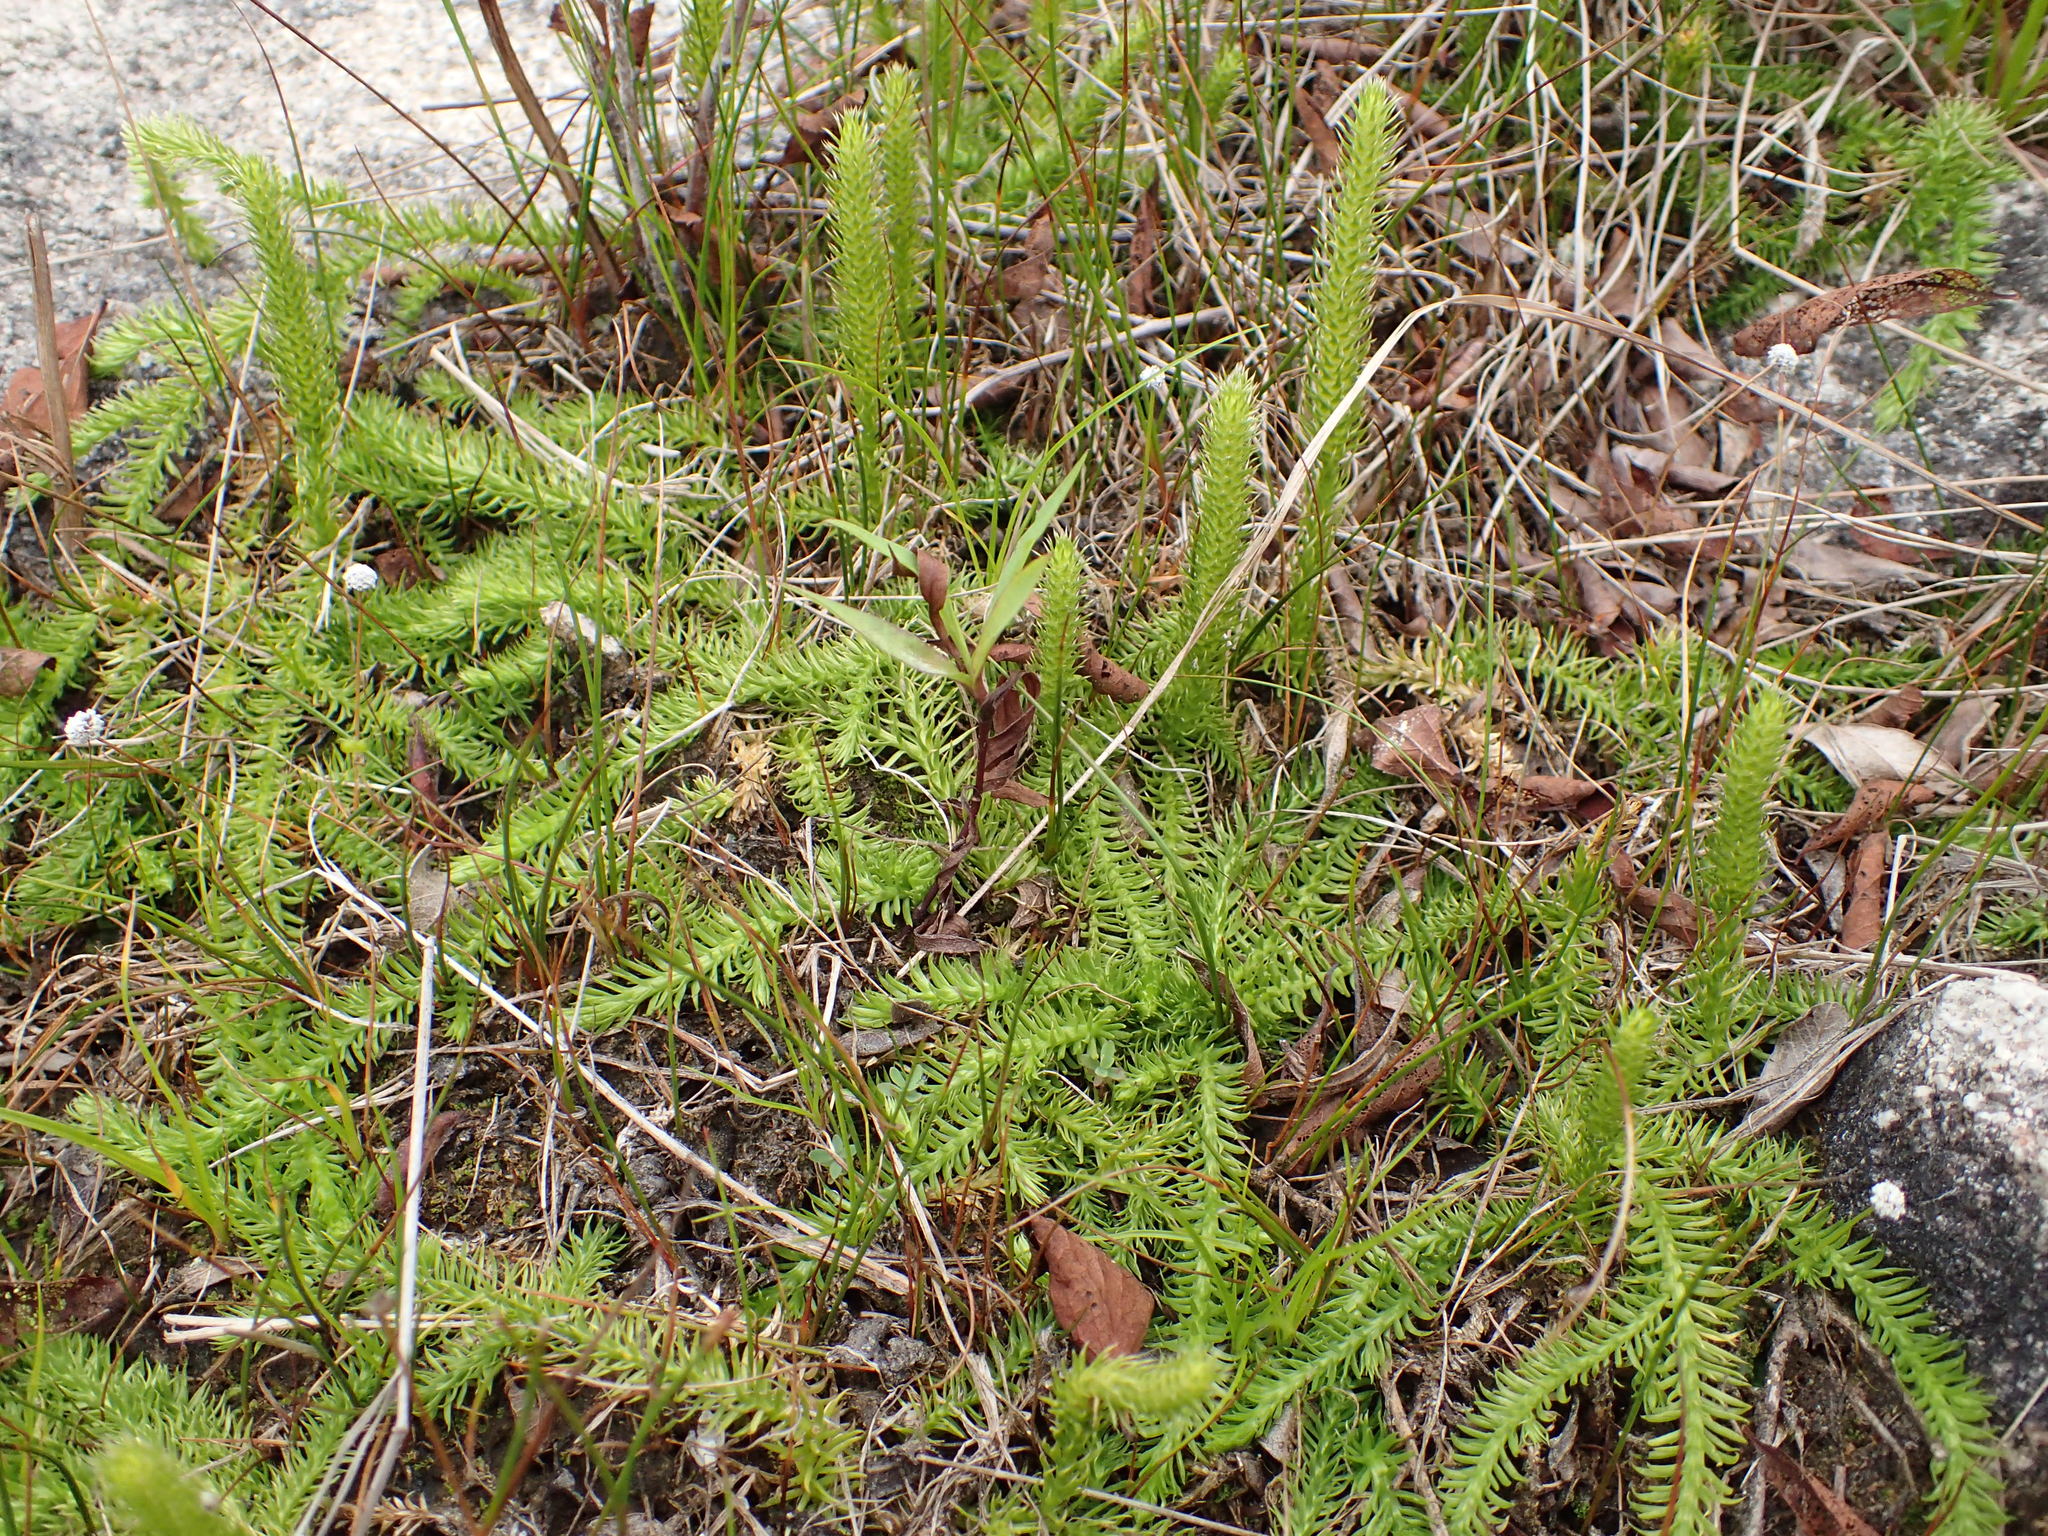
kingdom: Plantae
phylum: Tracheophyta
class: Lycopodiopsida
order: Lycopodiales
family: Lycopodiaceae
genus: Lycopodiella
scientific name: Lycopodiella inundata
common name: Marsh clubmoss
